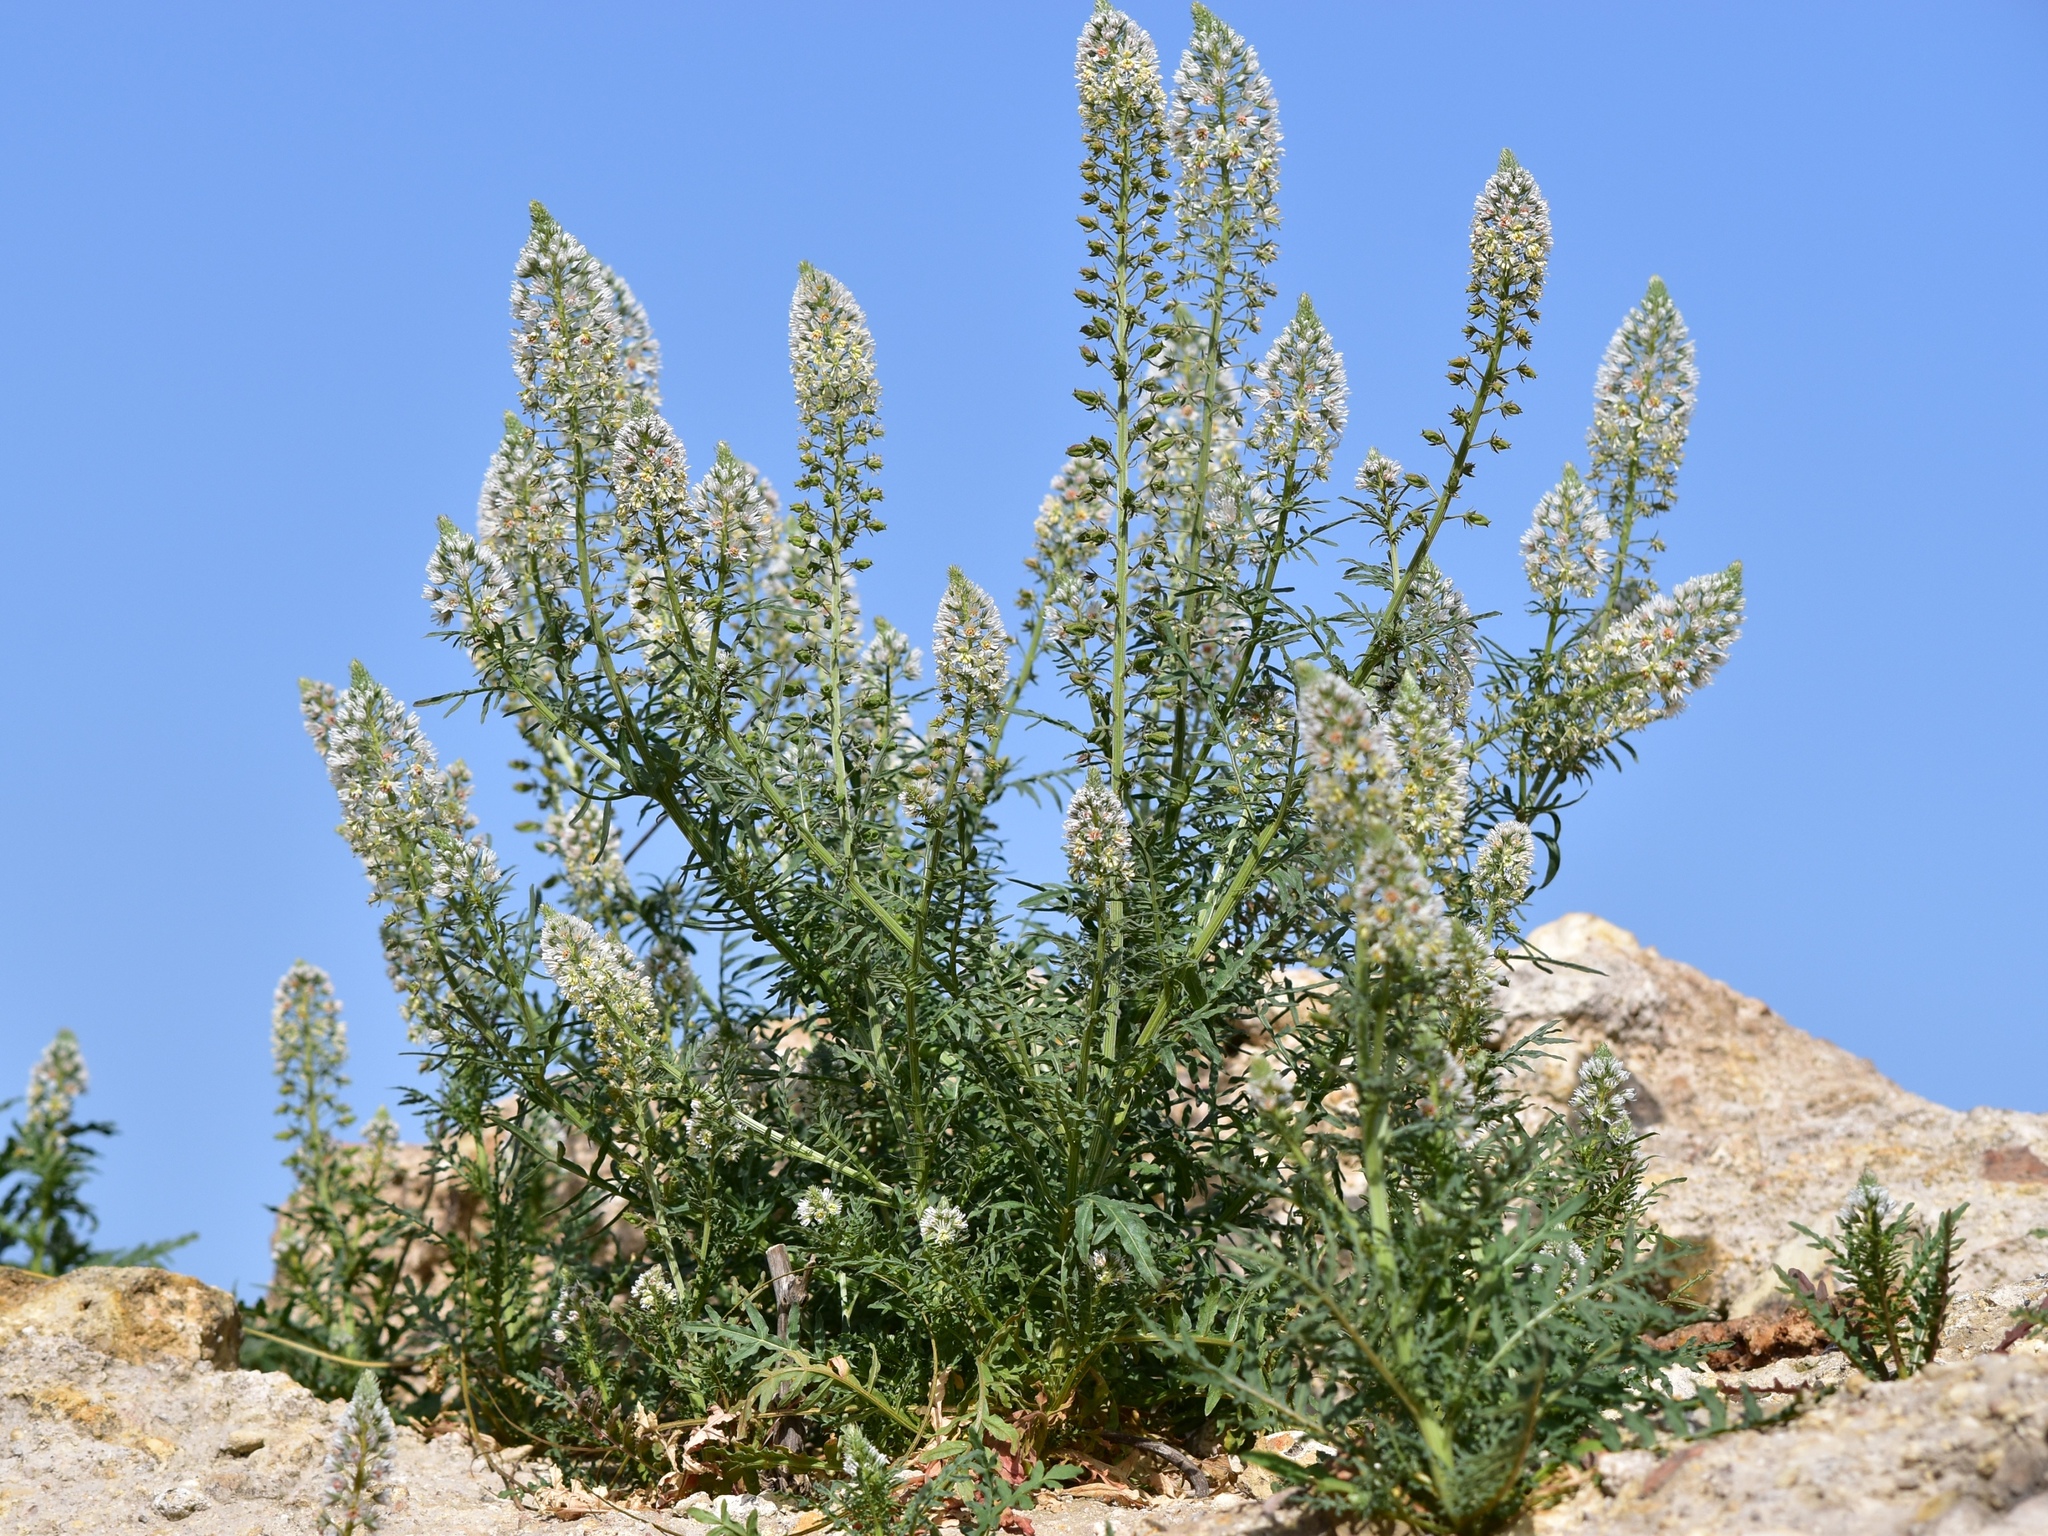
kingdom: Plantae
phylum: Tracheophyta
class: Magnoliopsida
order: Brassicales
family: Resedaceae
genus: Reseda
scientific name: Reseda alba
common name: White mignonette
